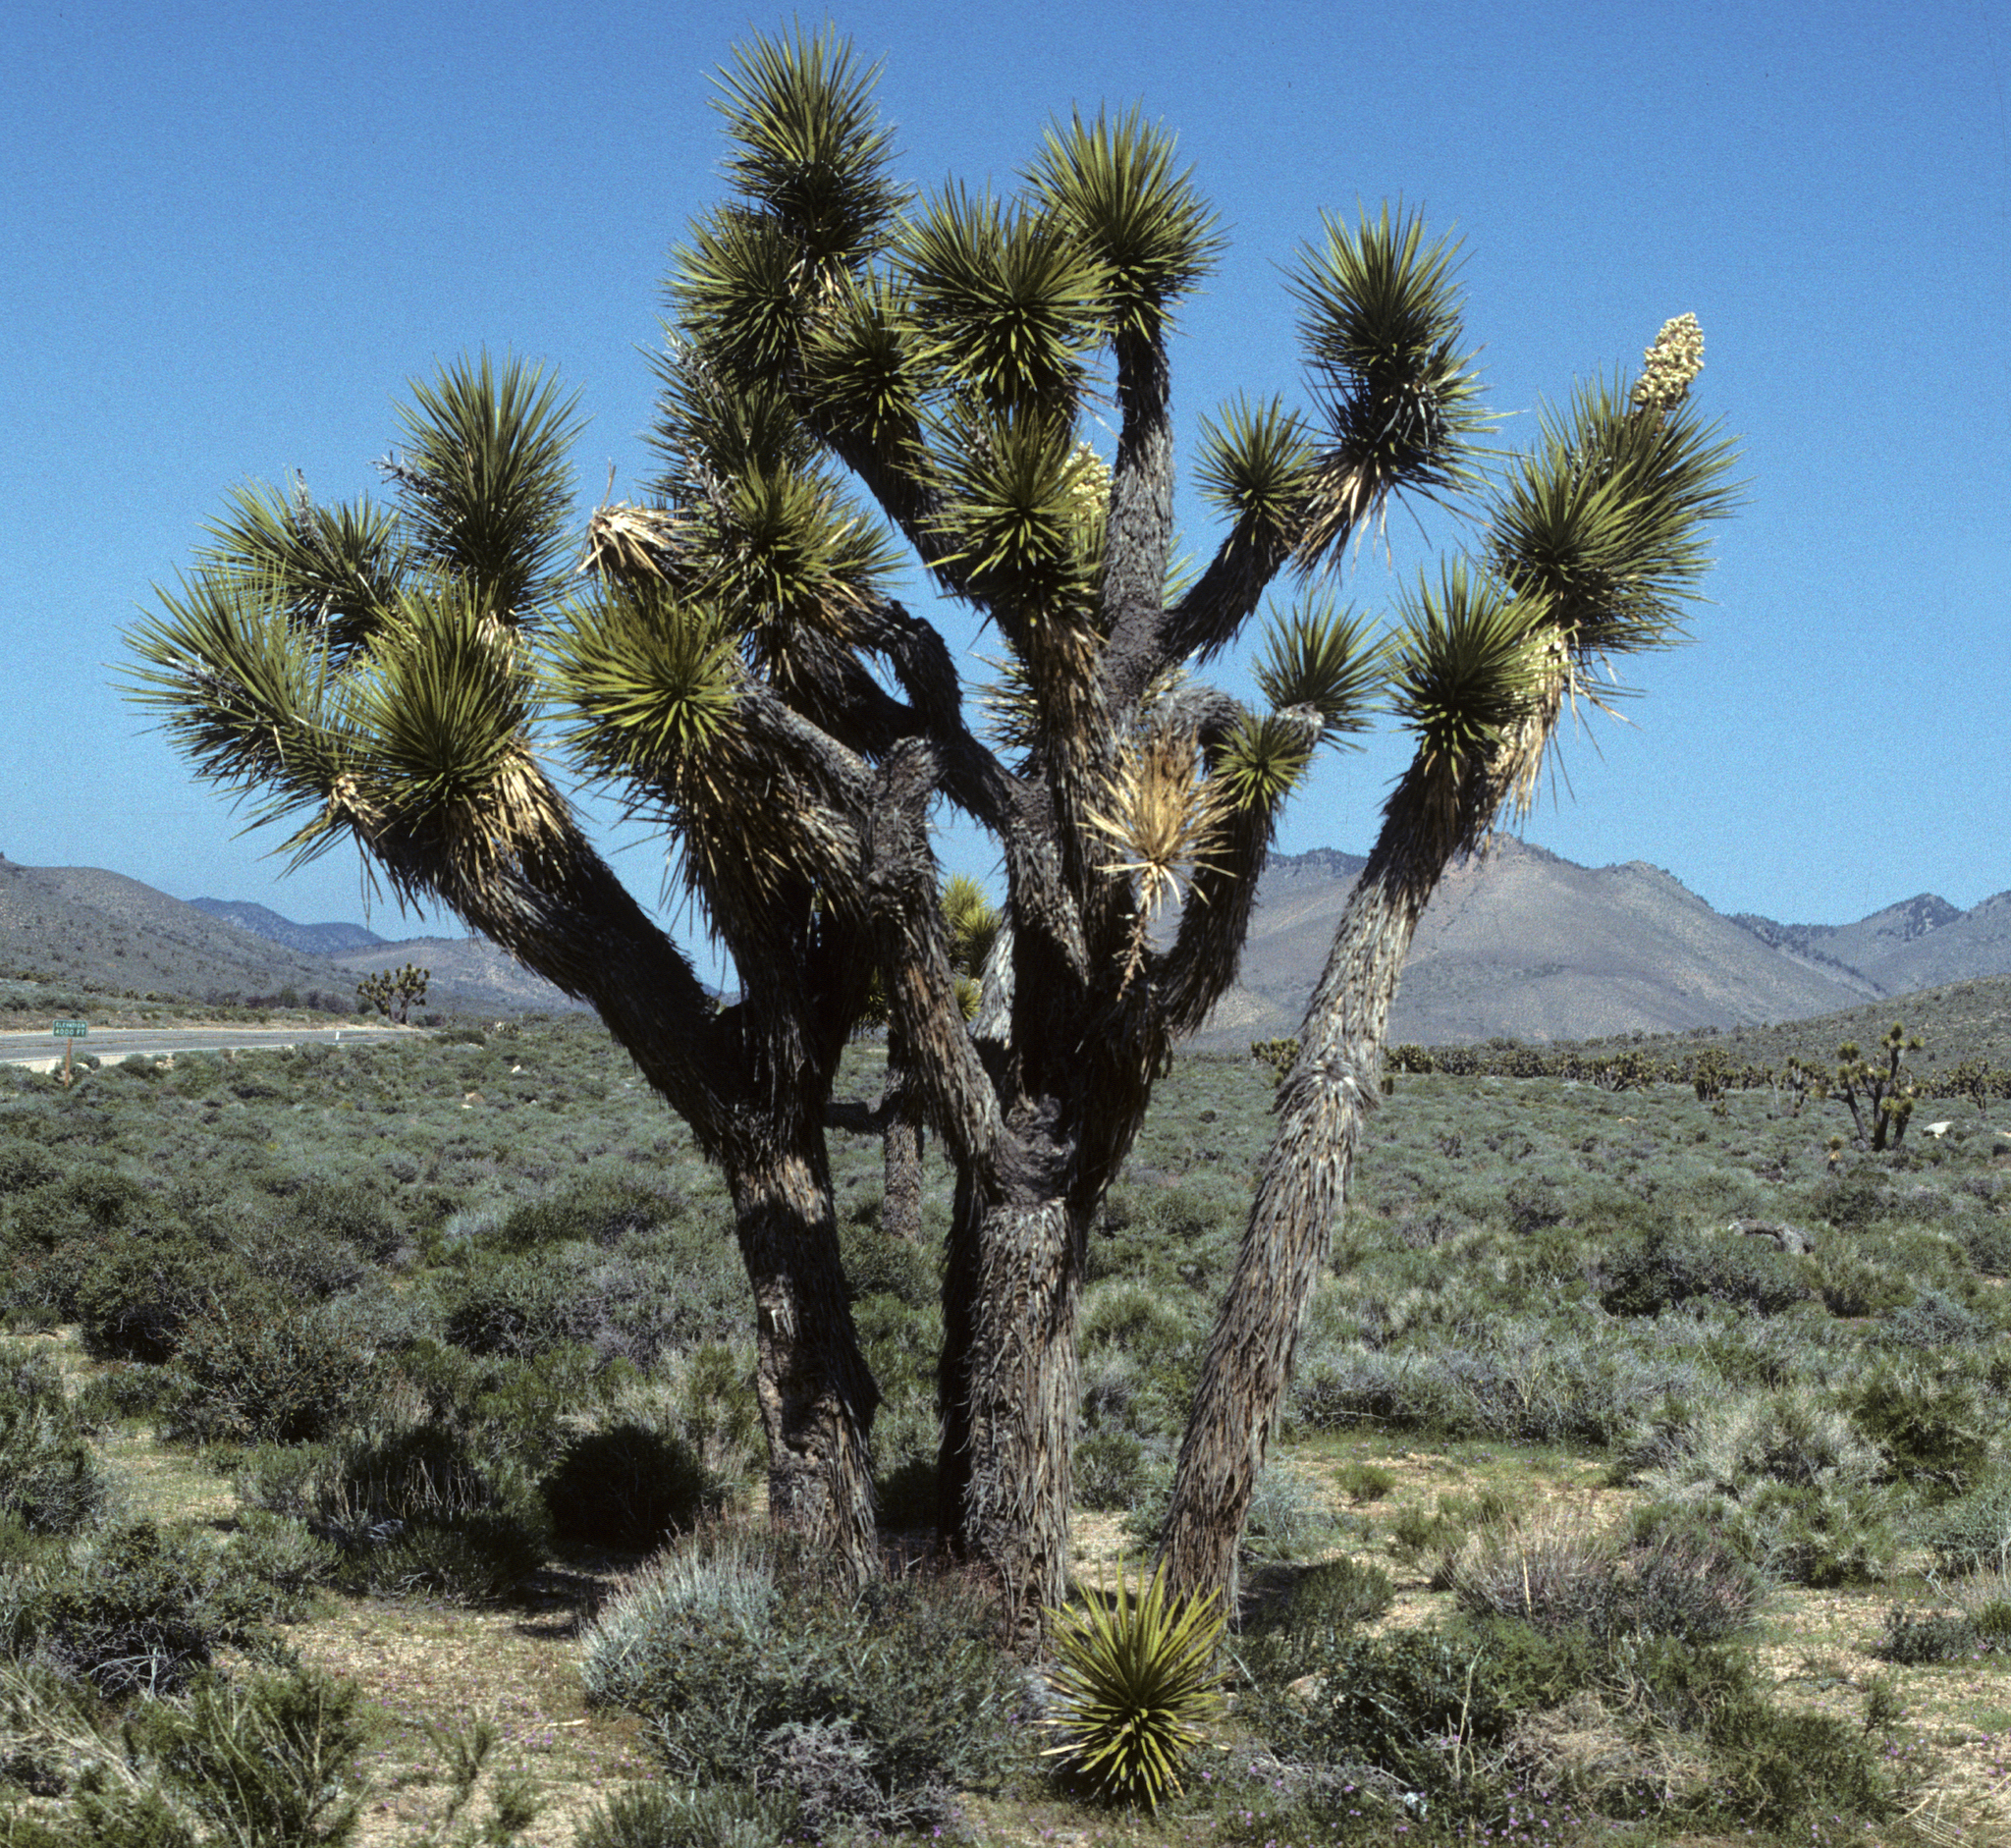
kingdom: Plantae
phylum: Tracheophyta
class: Liliopsida
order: Asparagales
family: Asparagaceae
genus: Yucca
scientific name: Yucca brevifolia
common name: Joshua tree
